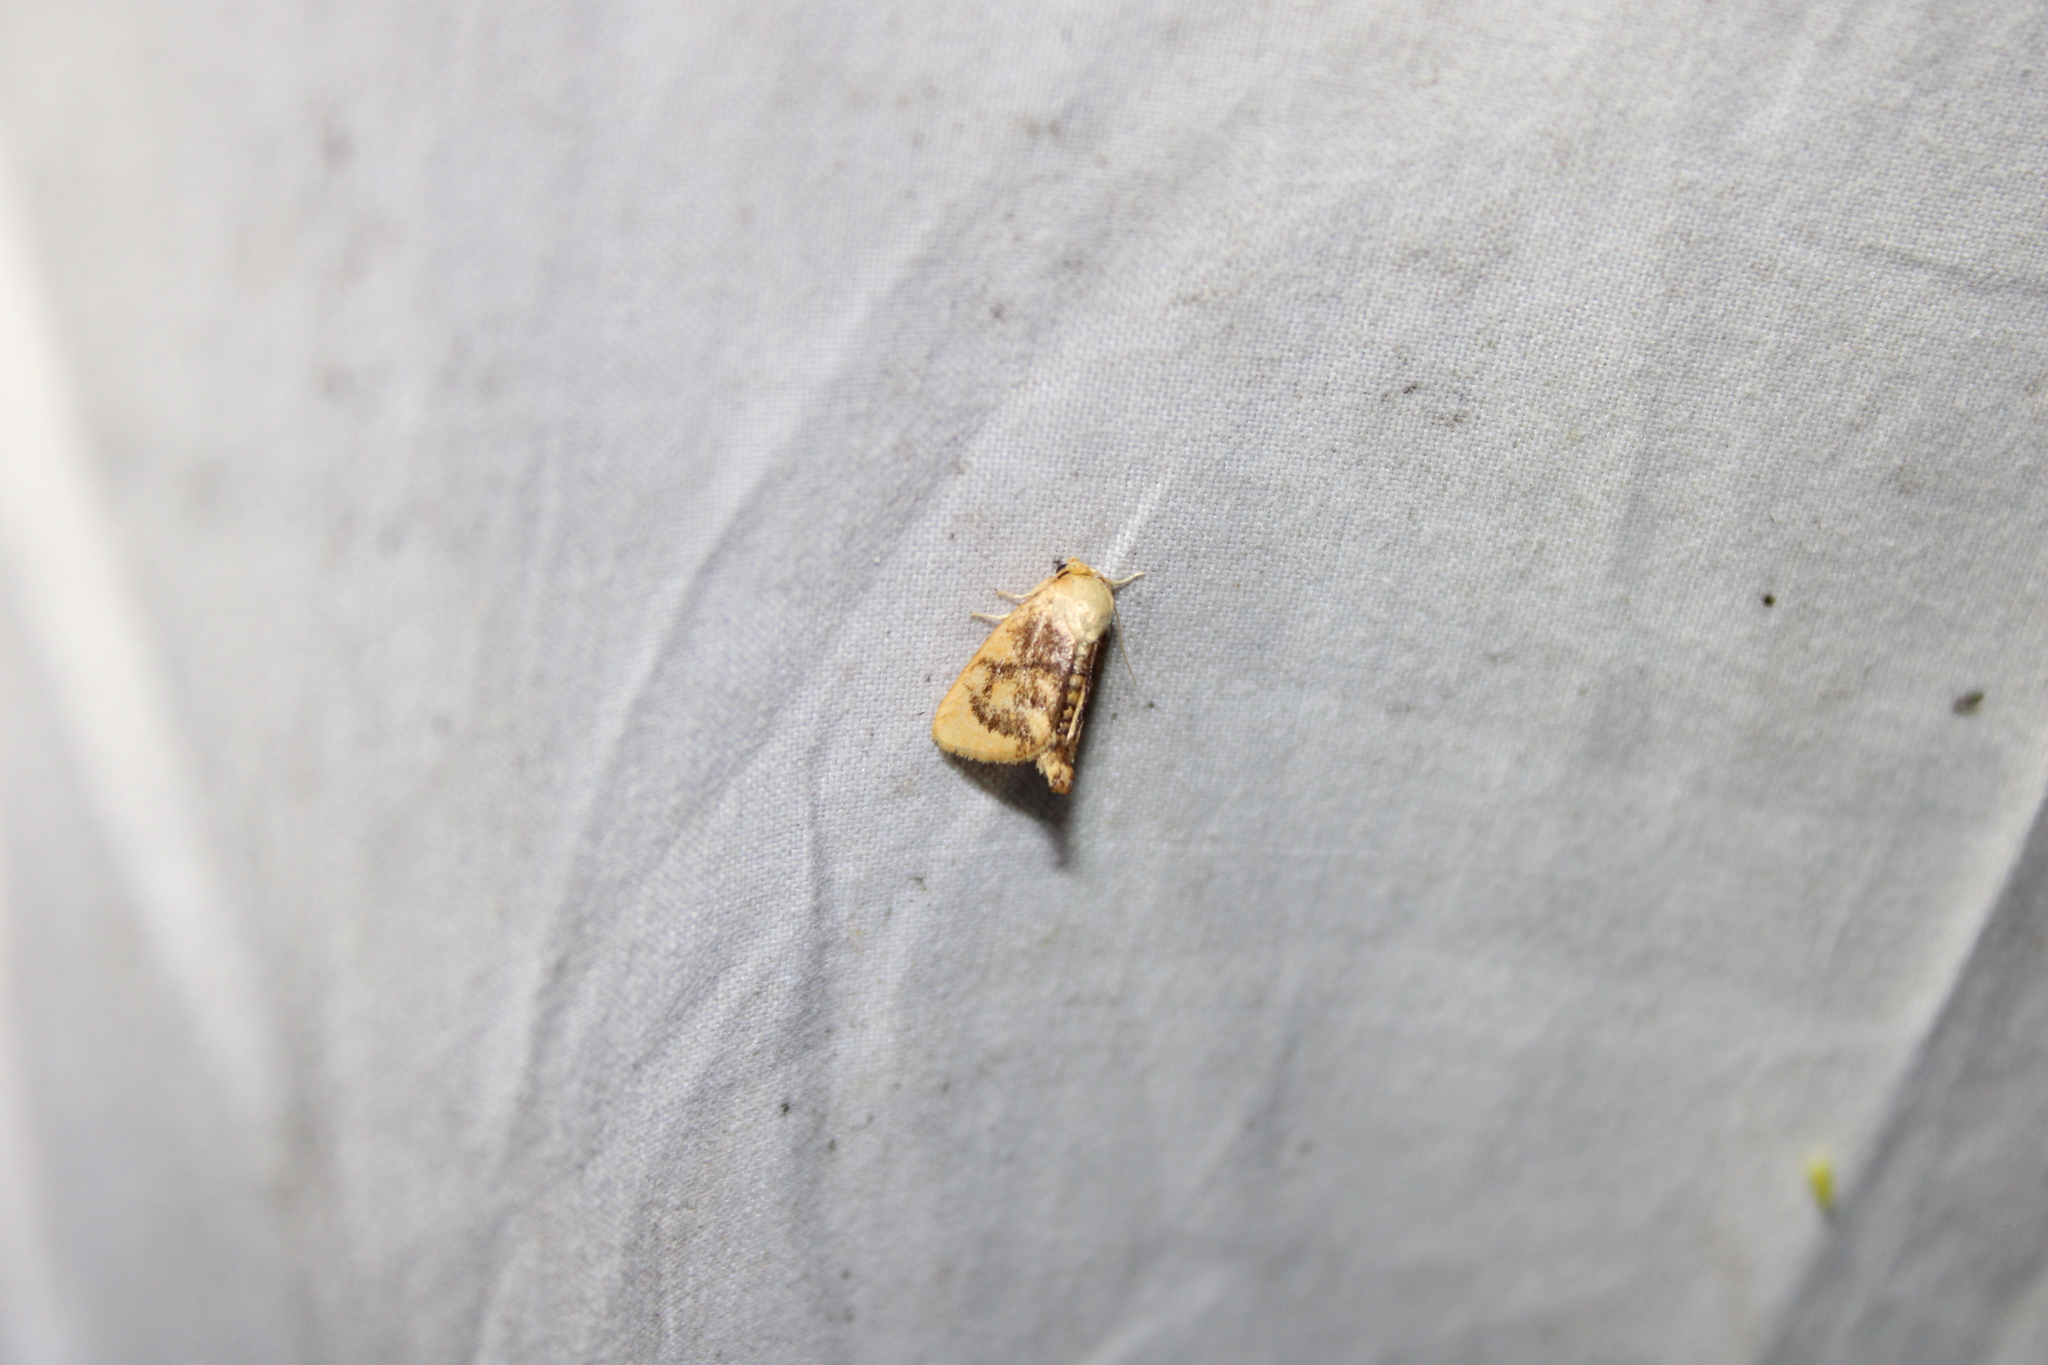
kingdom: Animalia
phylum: Arthropoda
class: Insecta
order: Lepidoptera
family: Limacodidae
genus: Tortricidia
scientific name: Tortricidia flexuosa
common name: Abbreviated button slug moth
